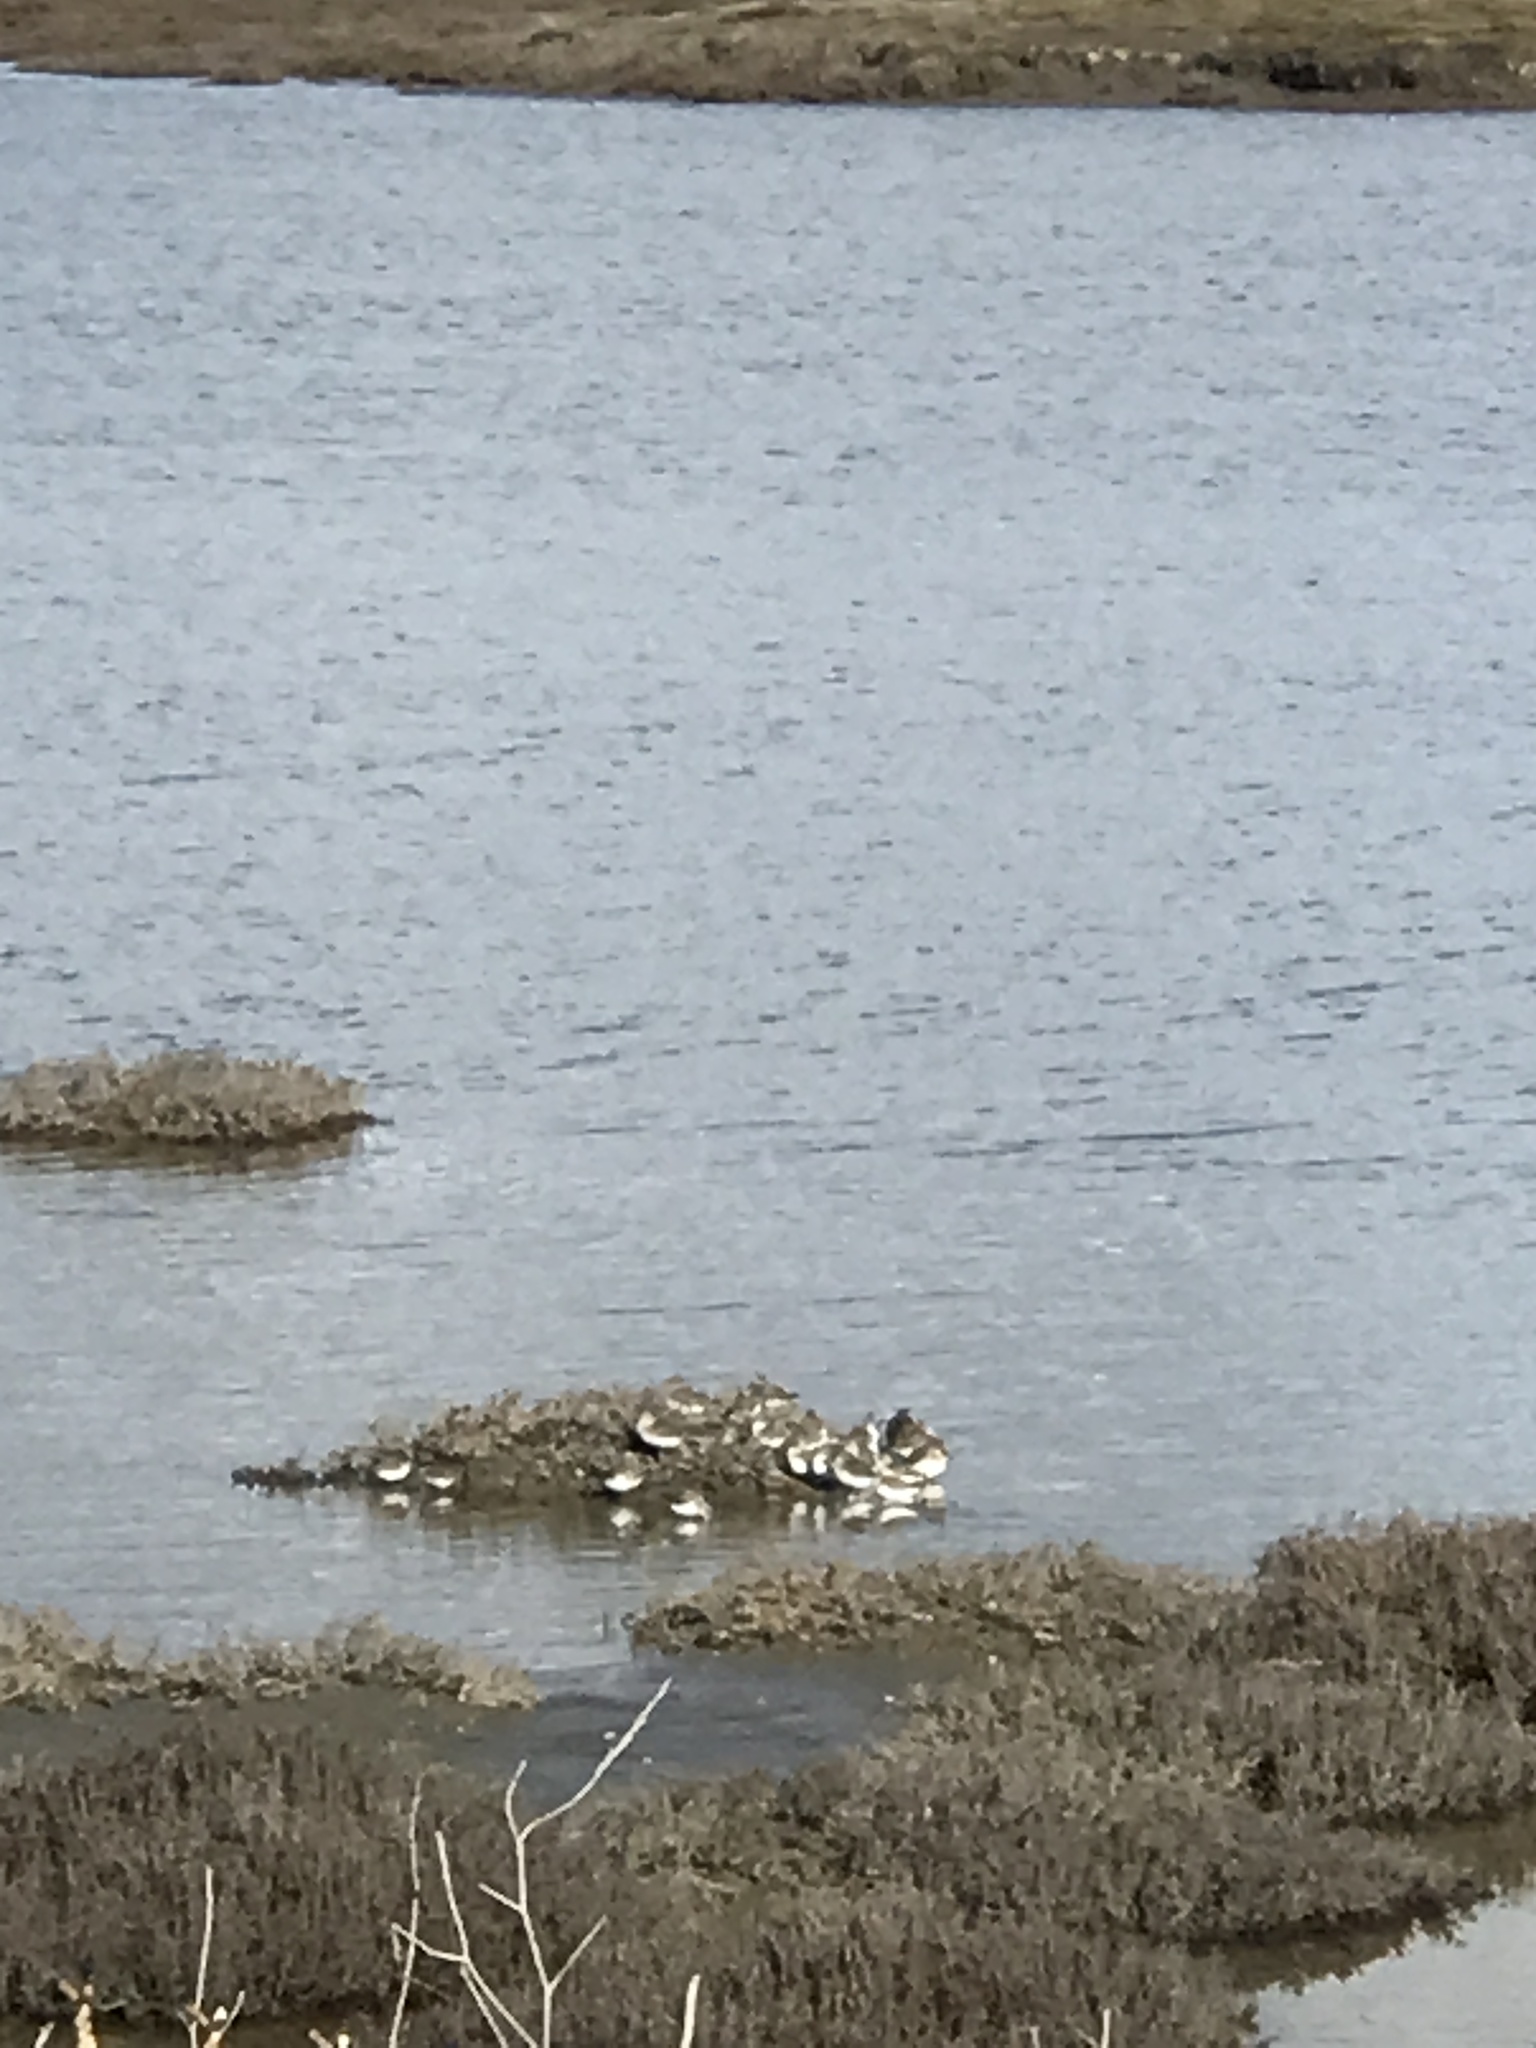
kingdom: Animalia
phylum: Chordata
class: Aves
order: Charadriiformes
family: Scolopacidae
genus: Calidris
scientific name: Calidris
